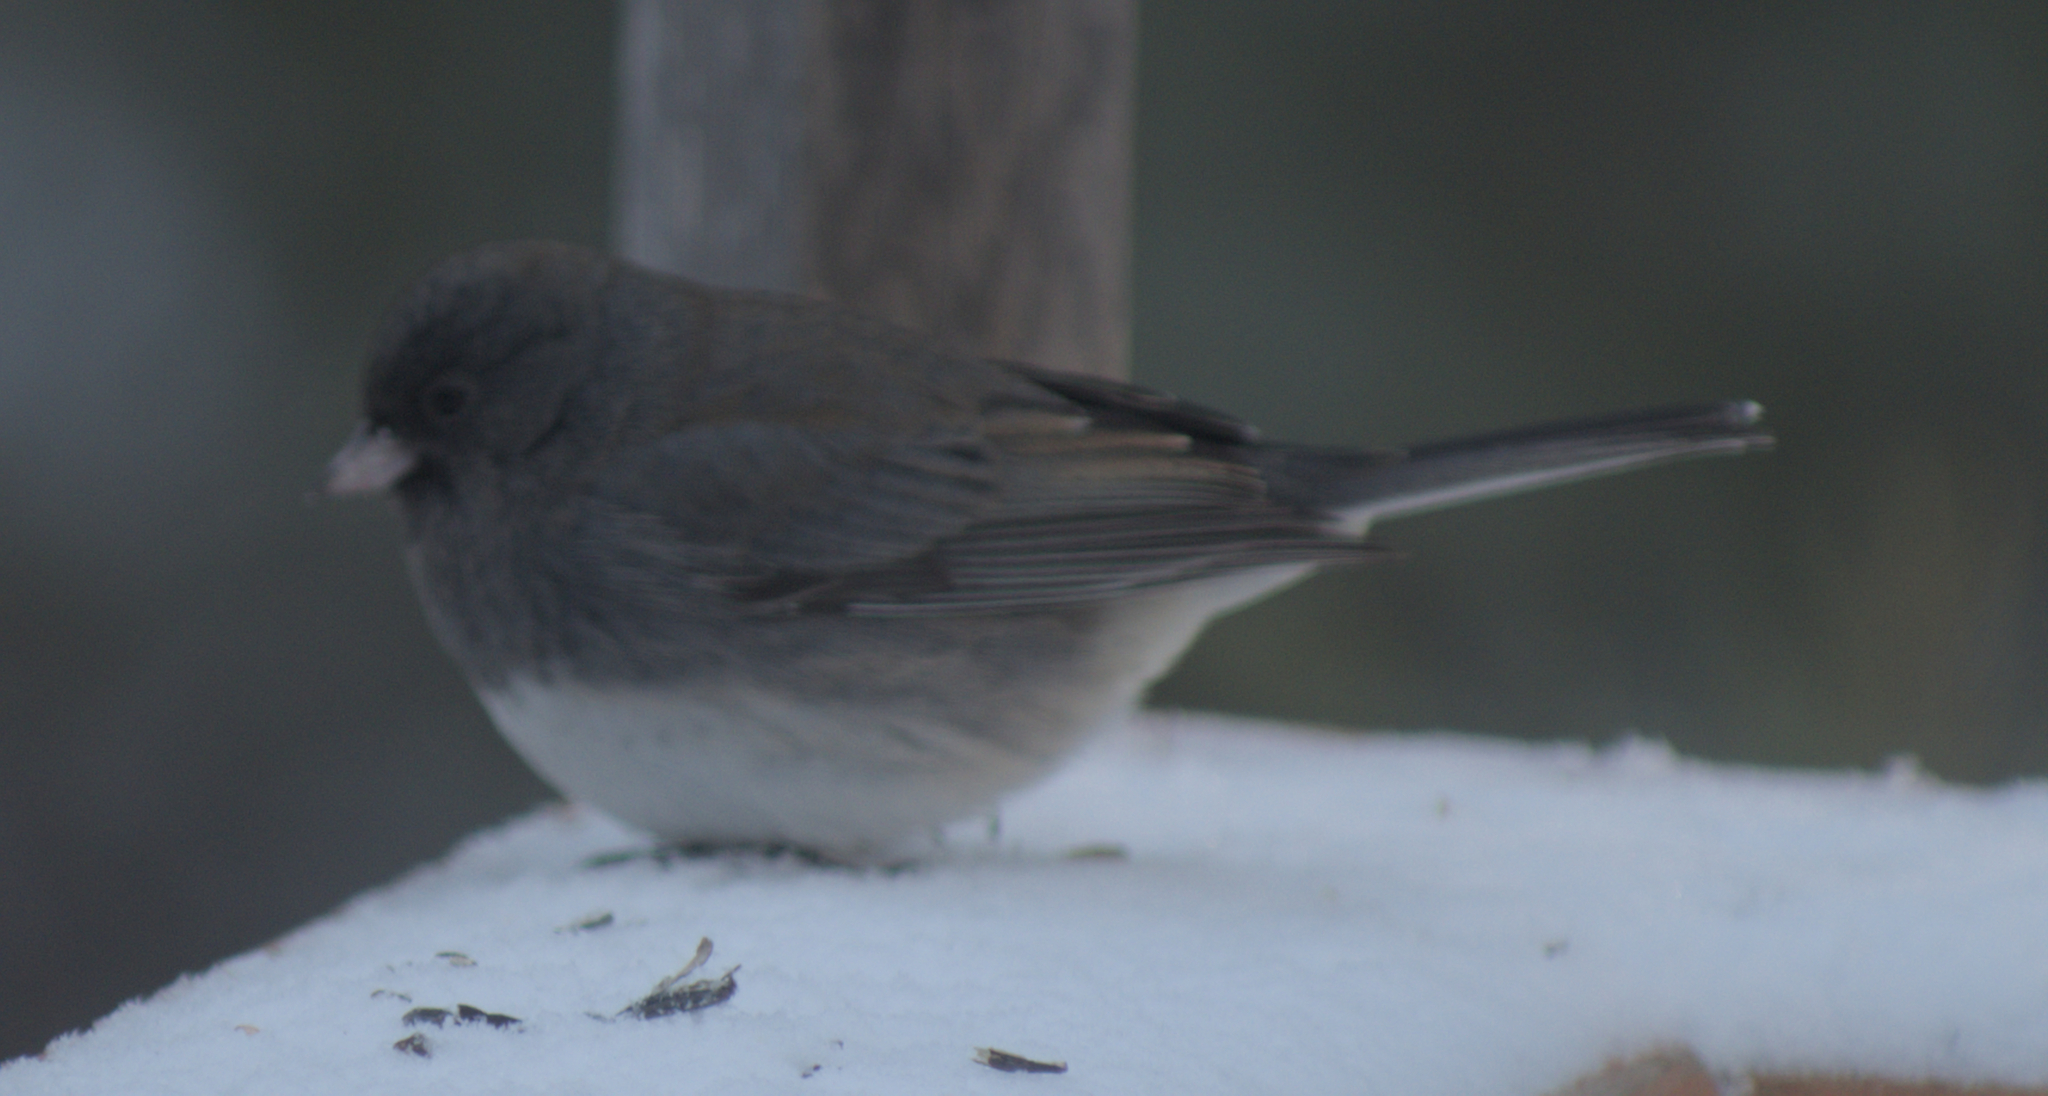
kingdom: Animalia
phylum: Chordata
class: Aves
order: Passeriformes
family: Passerellidae
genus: Junco
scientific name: Junco hyemalis
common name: Dark-eyed junco
